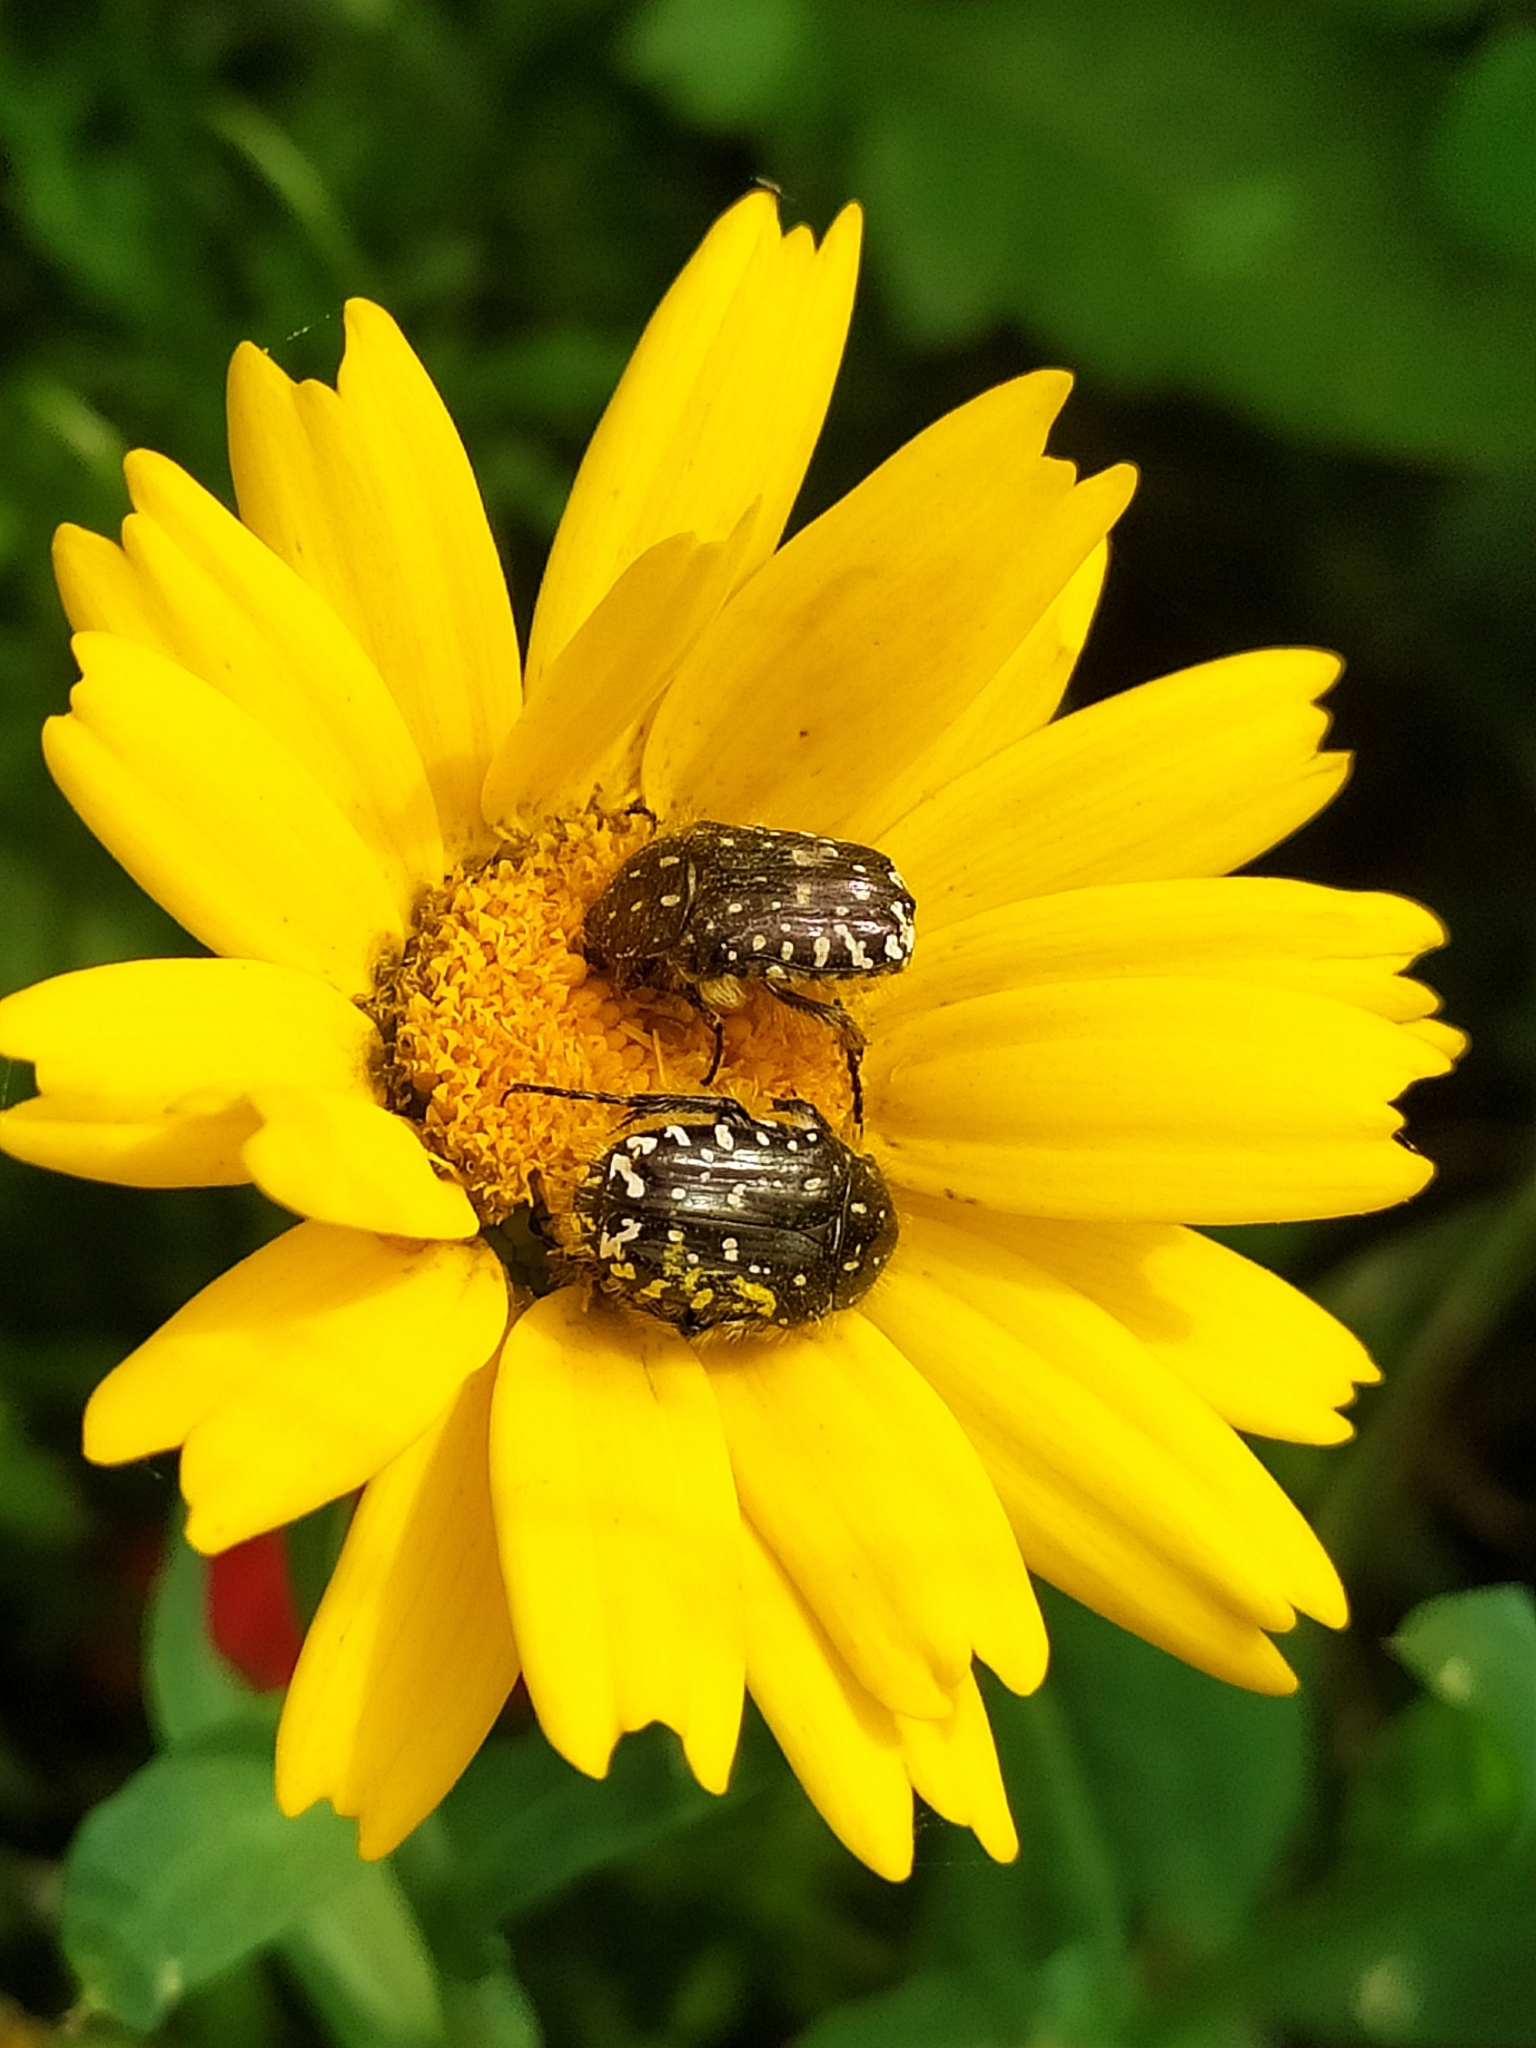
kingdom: Animalia
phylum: Arthropoda
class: Insecta
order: Coleoptera
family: Scarabaeidae
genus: Oxythyrea
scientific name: Oxythyrea funesta
